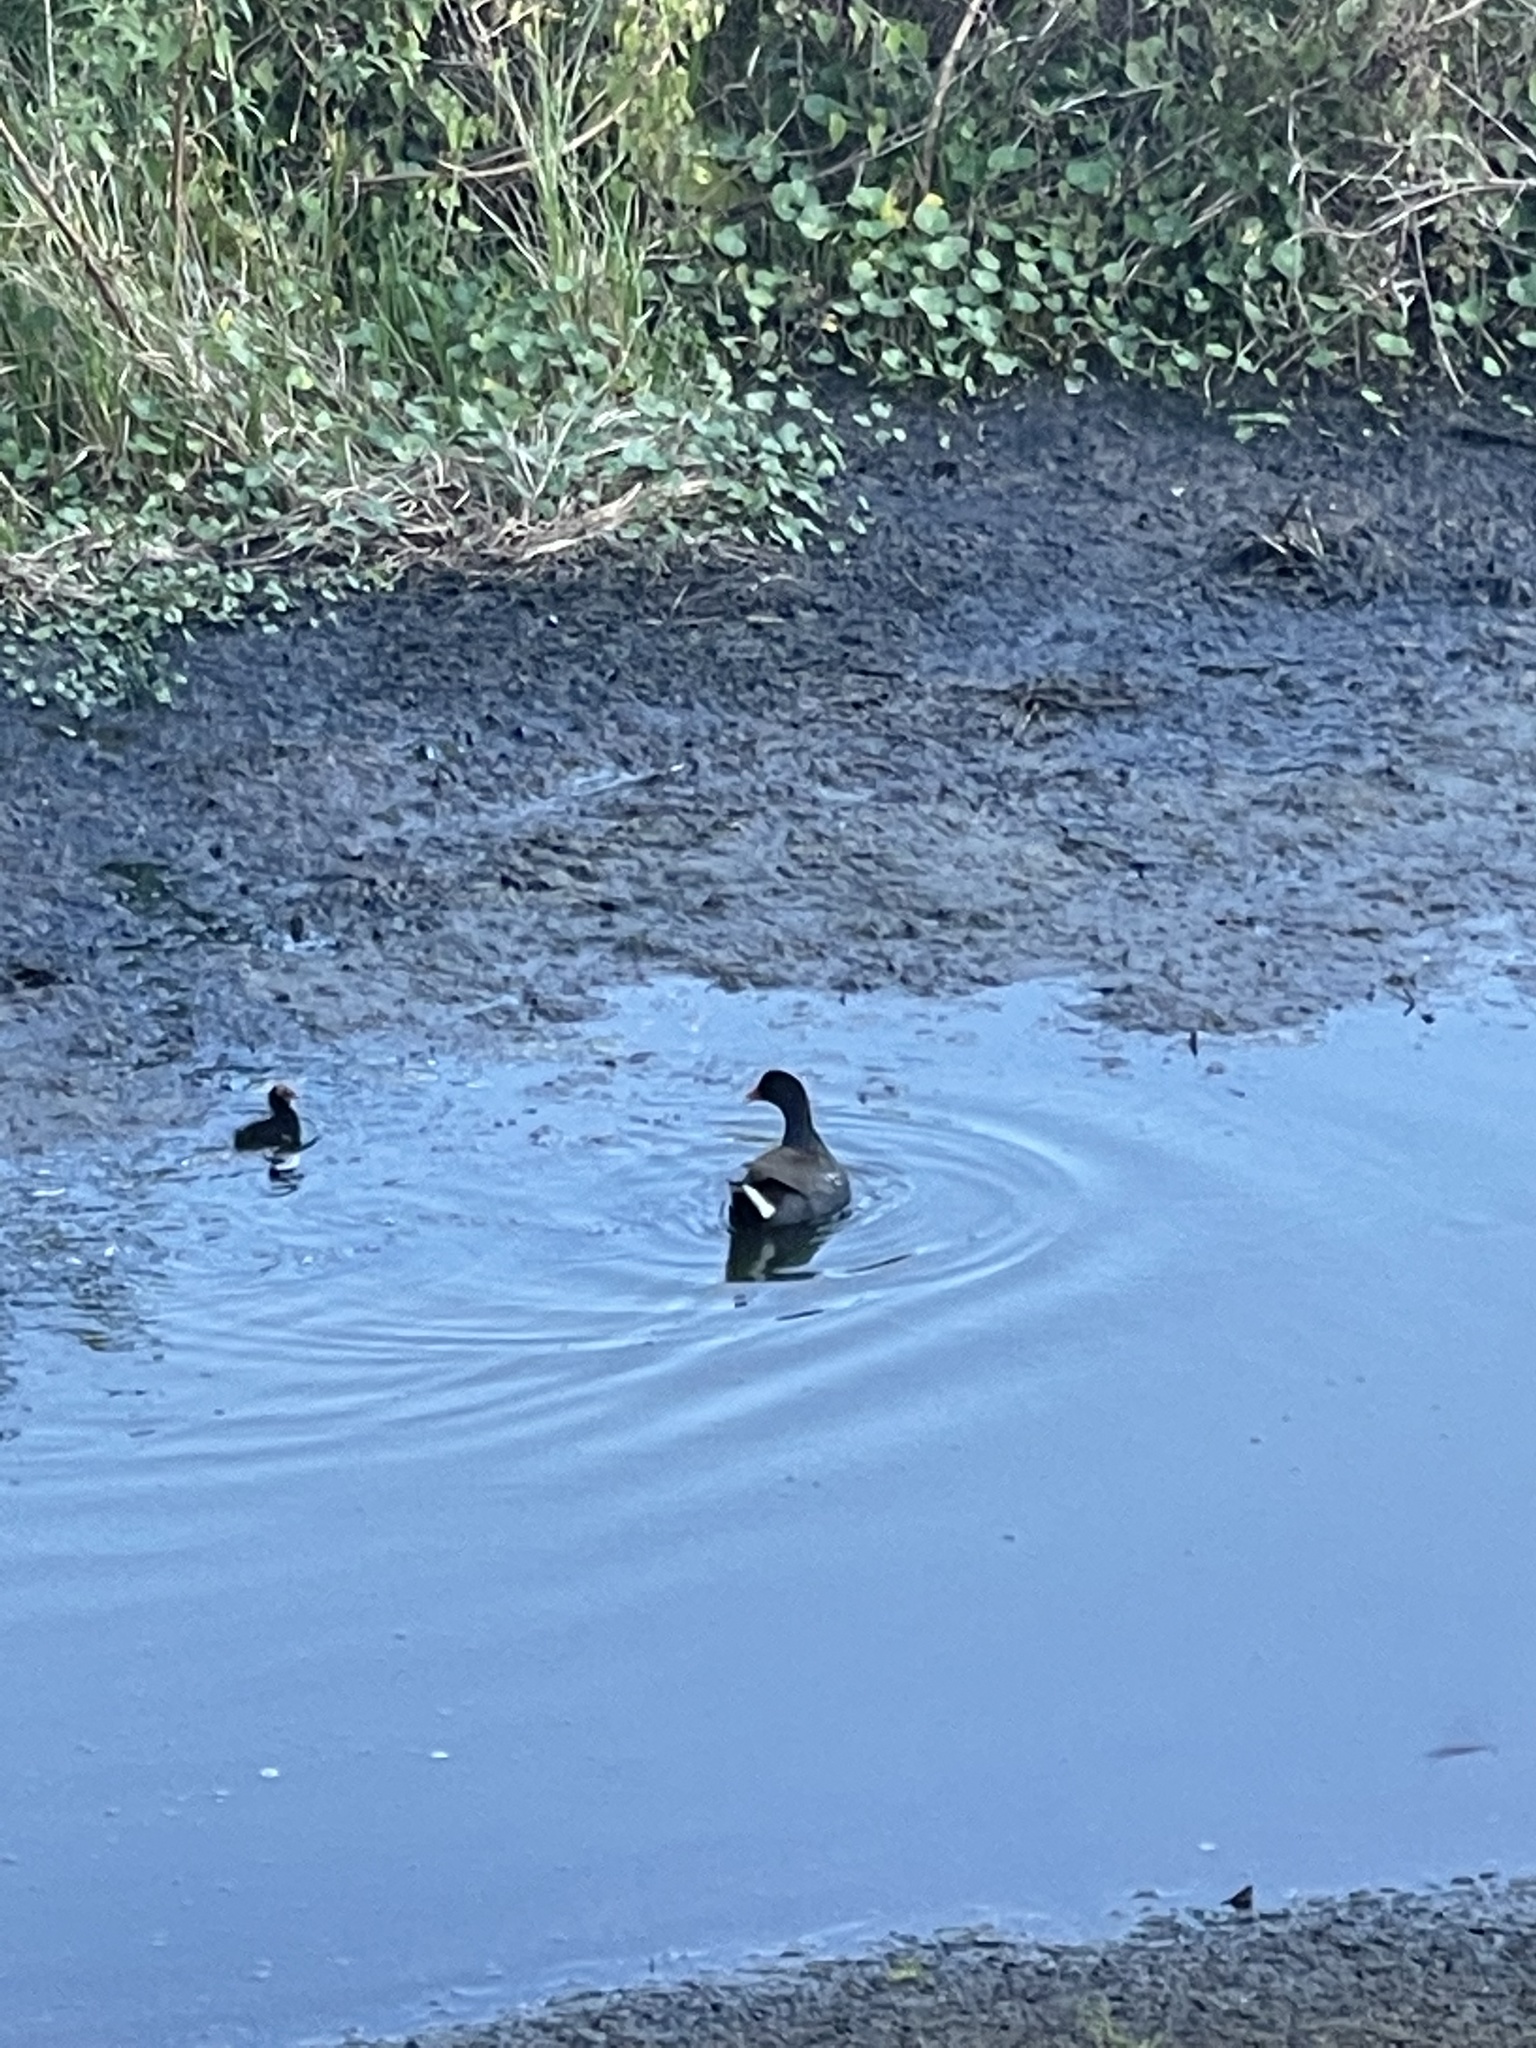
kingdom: Animalia
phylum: Chordata
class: Aves
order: Gruiformes
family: Rallidae
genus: Gallinula
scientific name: Gallinula chloropus
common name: Common moorhen
